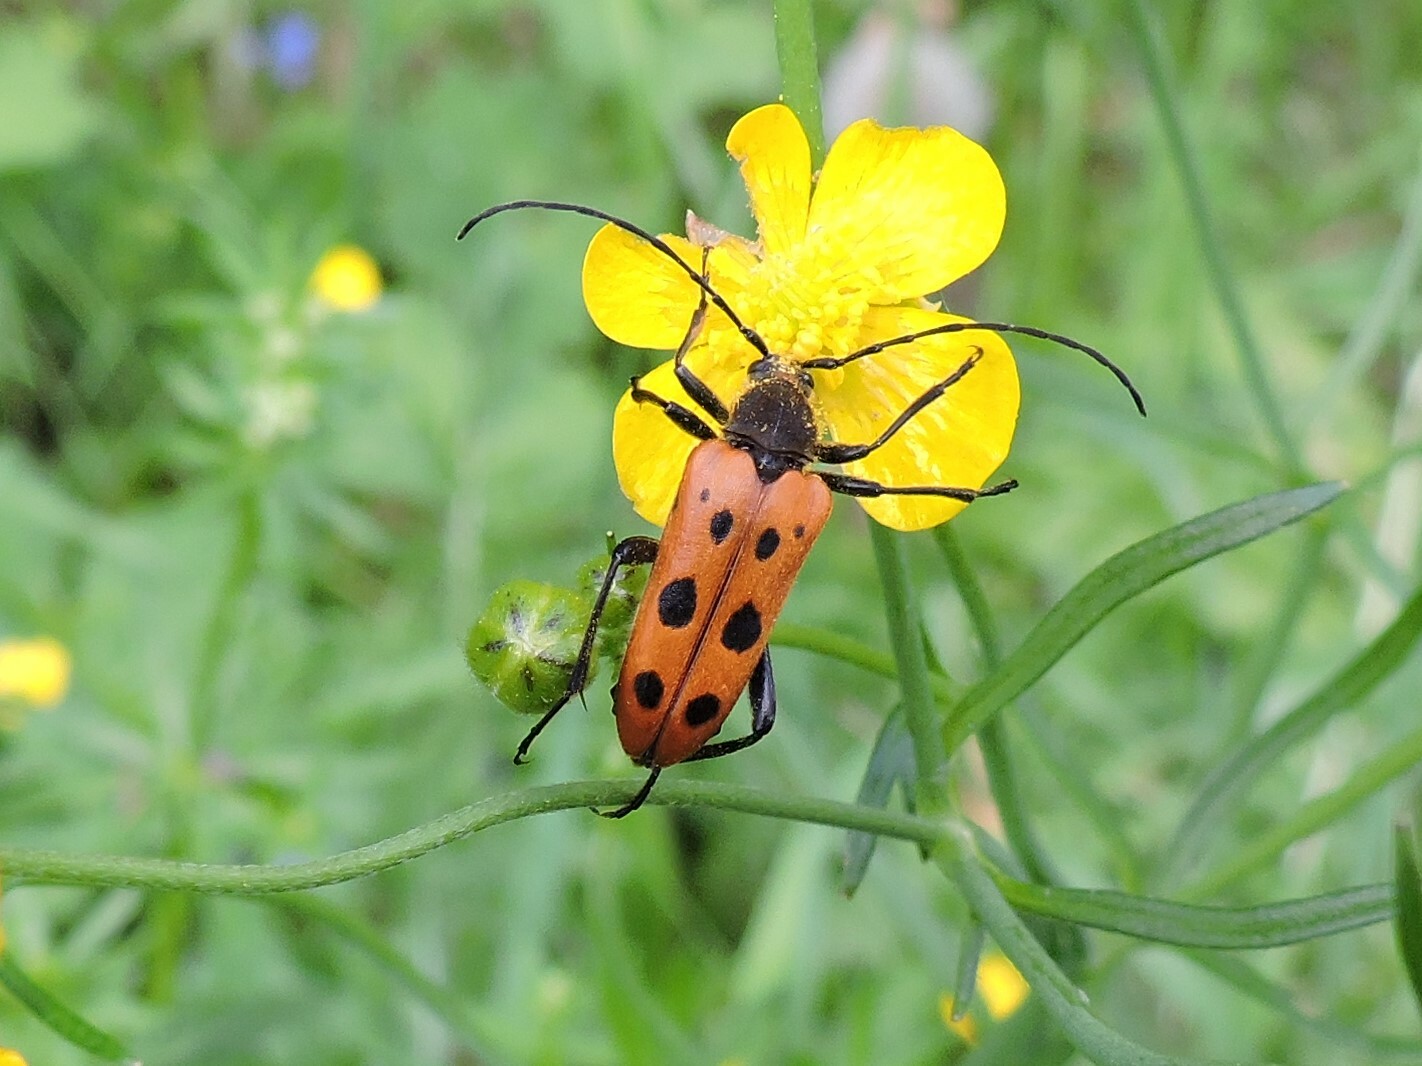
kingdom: Animalia
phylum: Arthropoda
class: Insecta
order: Coleoptera
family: Cerambycidae
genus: Oedecnema
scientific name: Oedecnema gebleri
